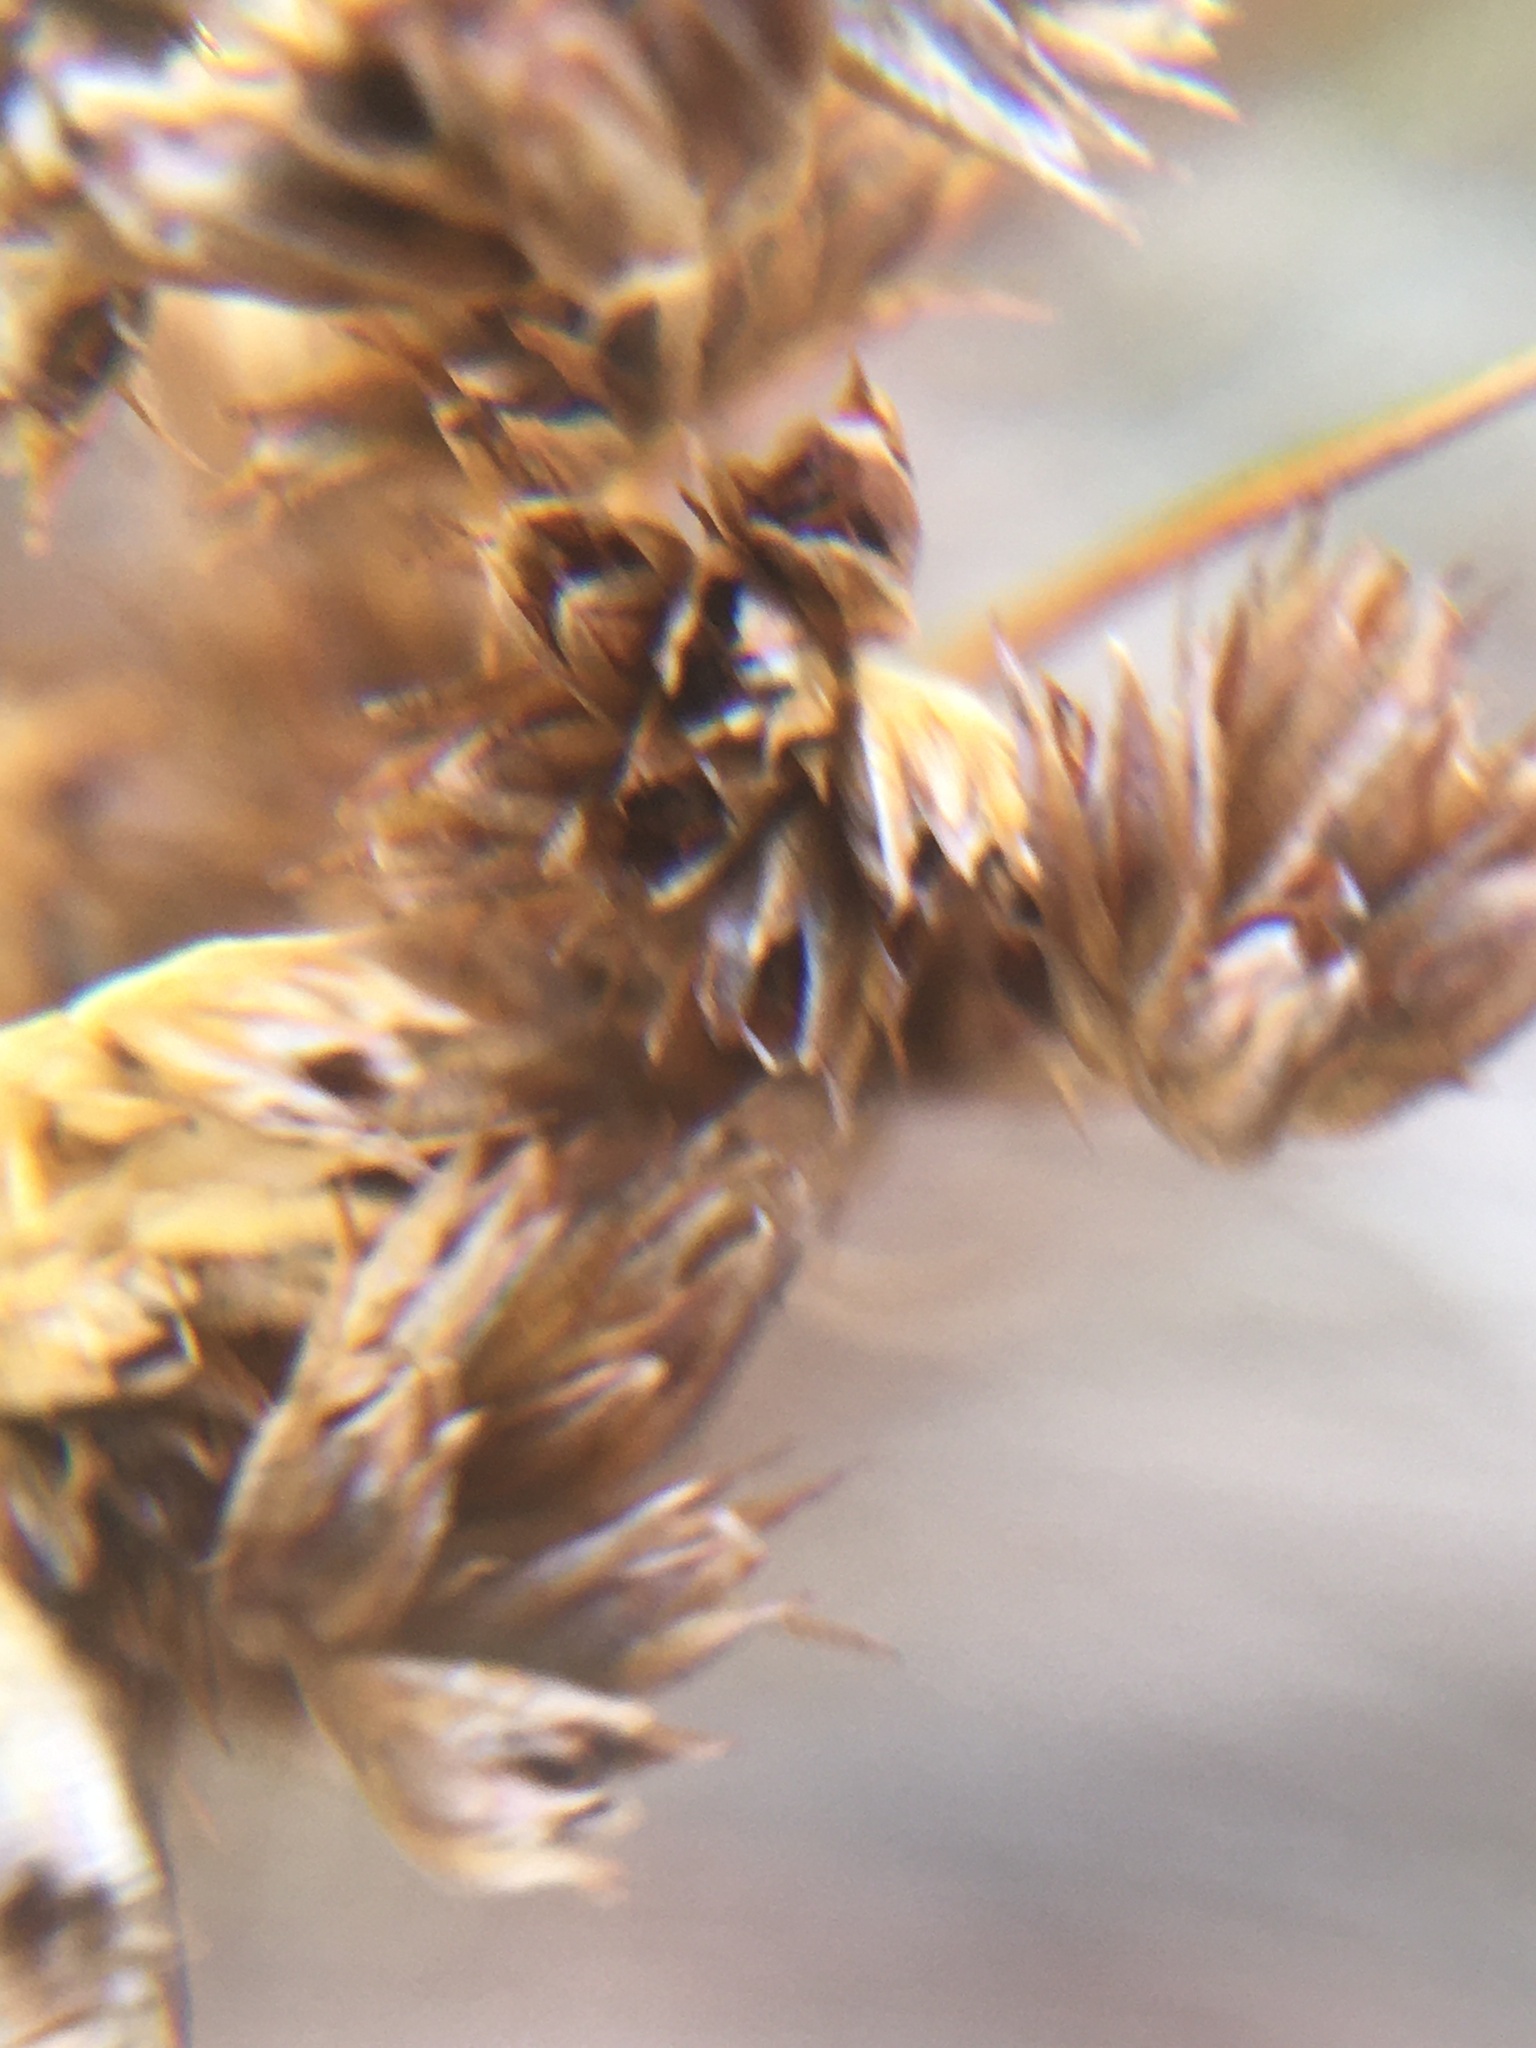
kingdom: Plantae
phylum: Tracheophyta
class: Liliopsida
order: Poales
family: Juncaceae
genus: Juncus
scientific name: Juncus kraussii
